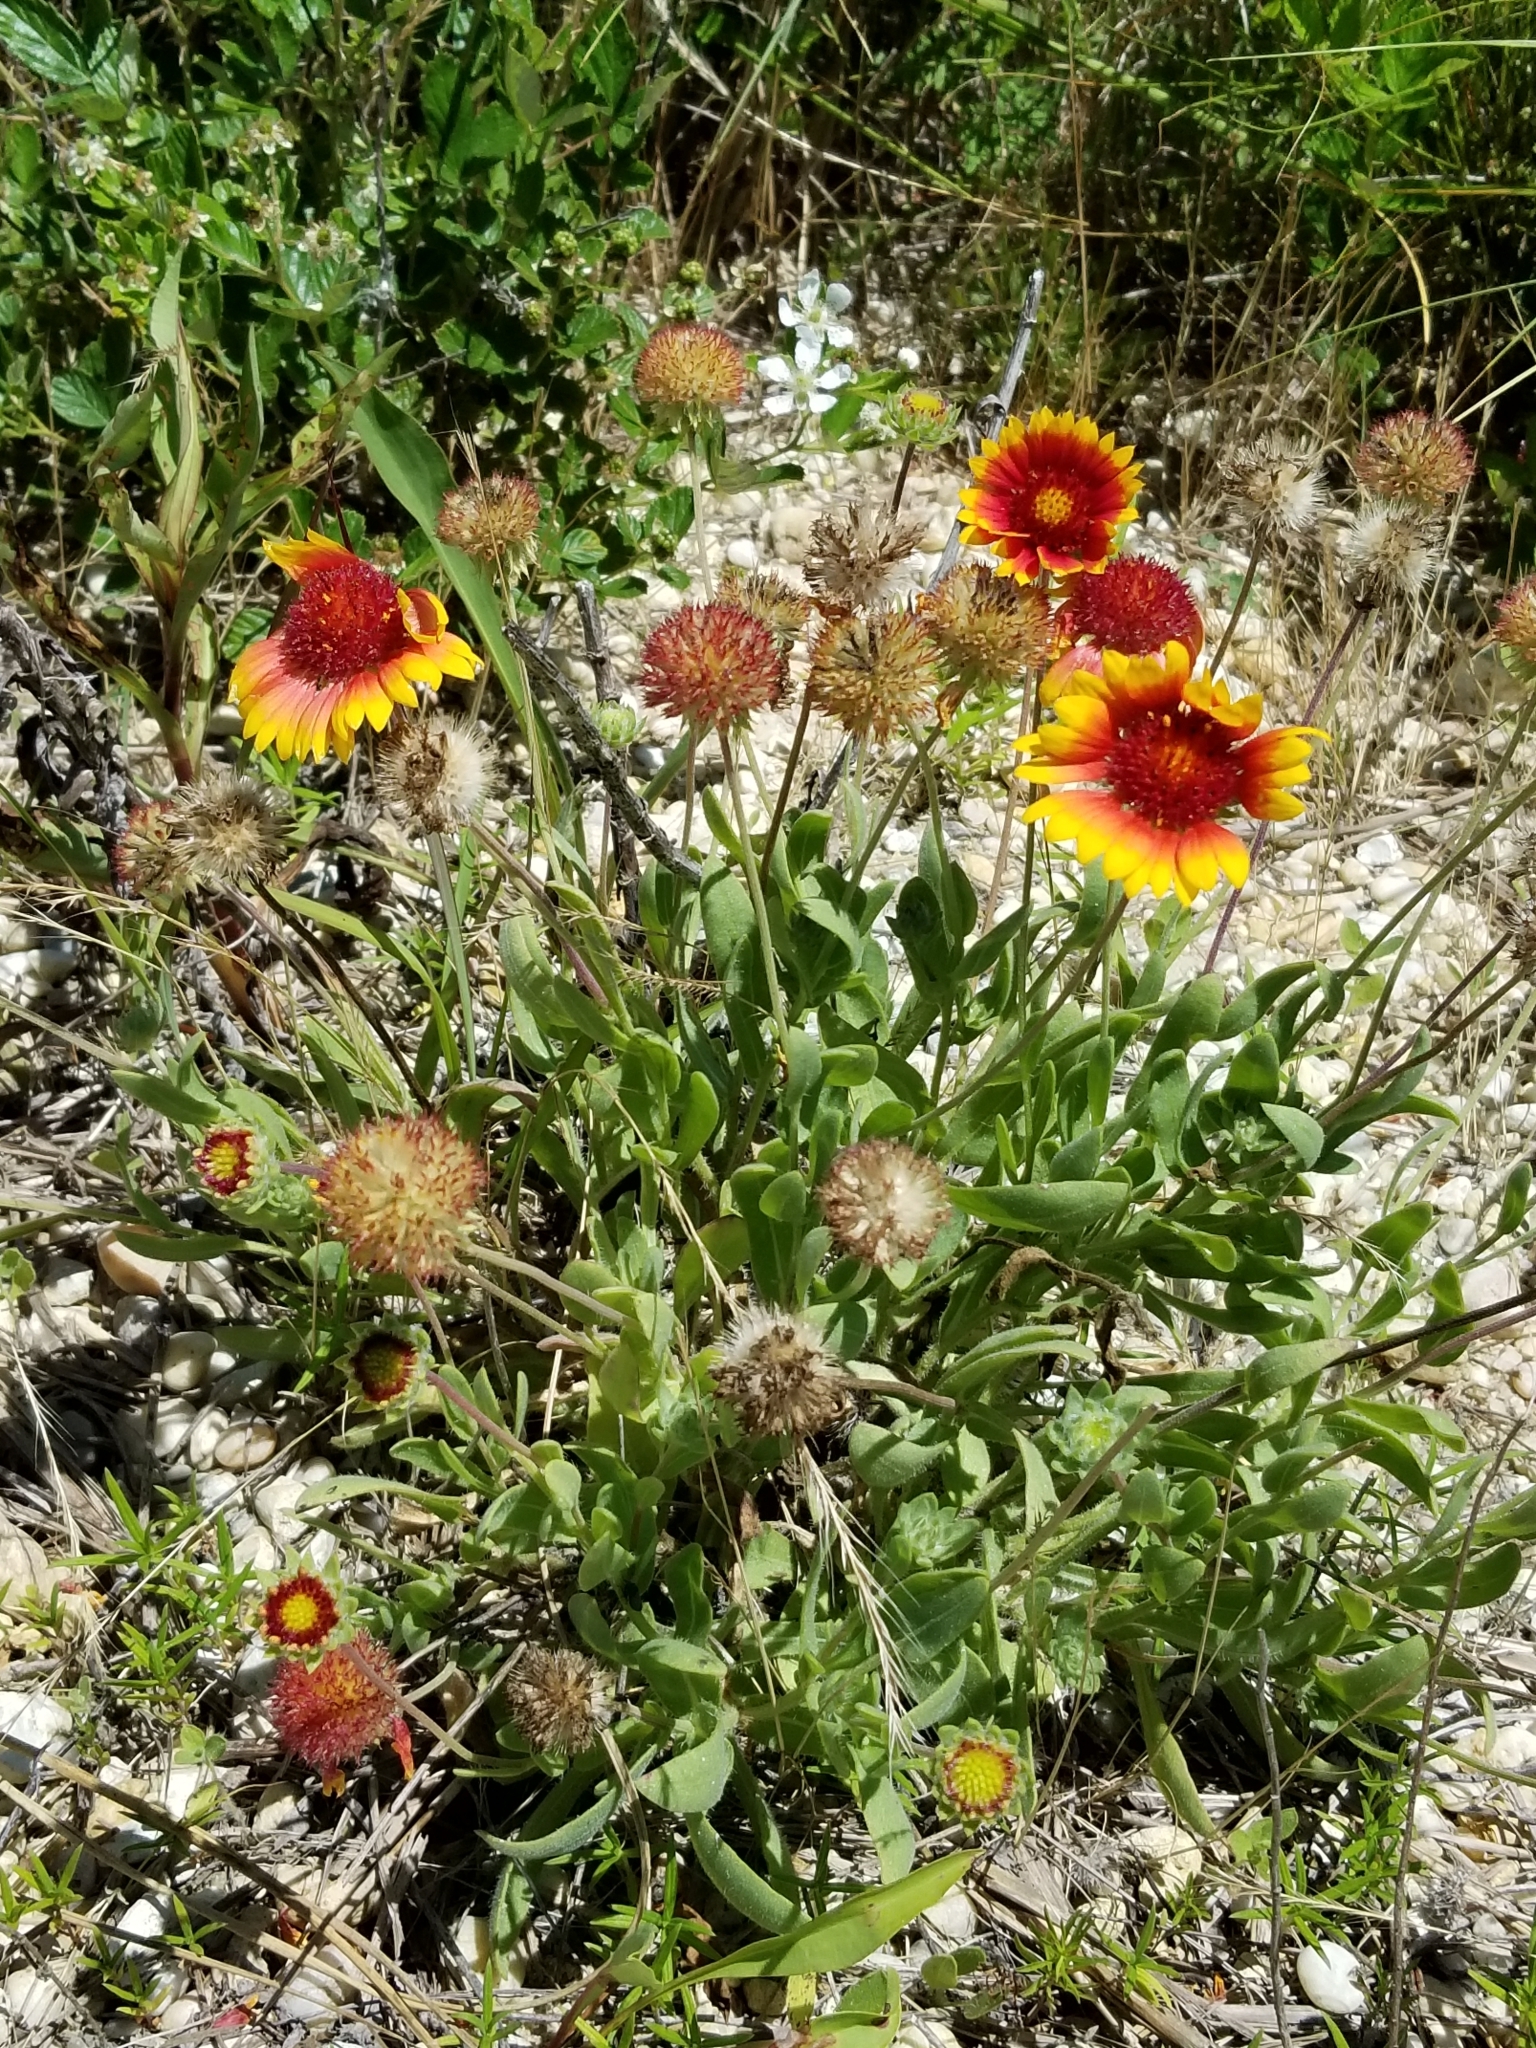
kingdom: Plantae
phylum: Tracheophyta
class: Magnoliopsida
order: Asterales
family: Asteraceae
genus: Gaillardia
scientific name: Gaillardia pulchella
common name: Firewheel
